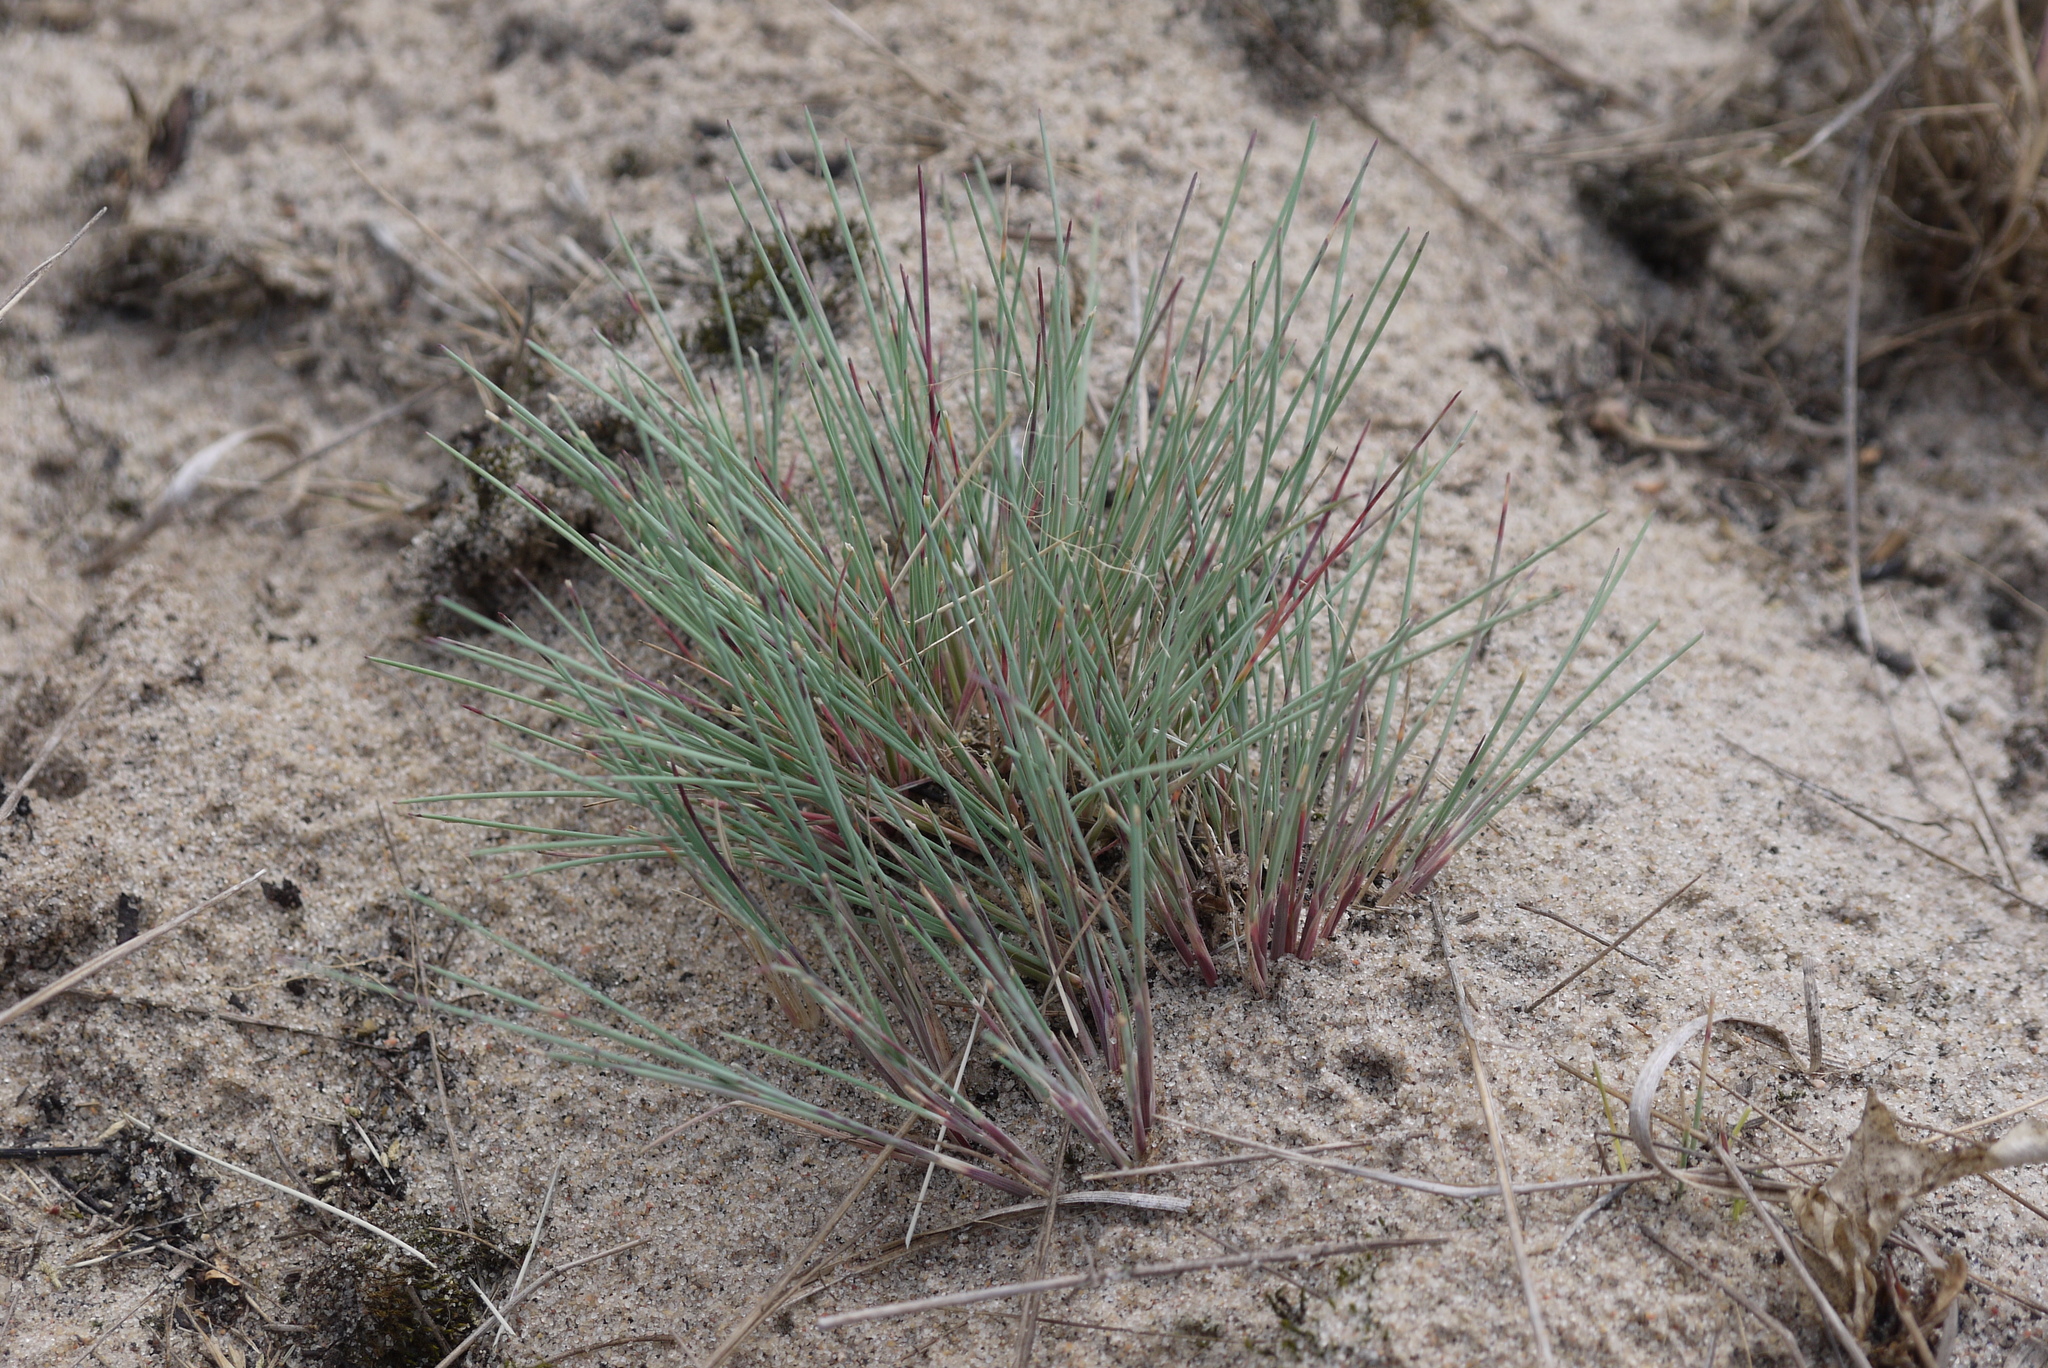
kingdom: Plantae
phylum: Tracheophyta
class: Liliopsida
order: Poales
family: Poaceae
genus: Corynephorus
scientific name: Corynephorus canescens
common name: Grey hair-grass
